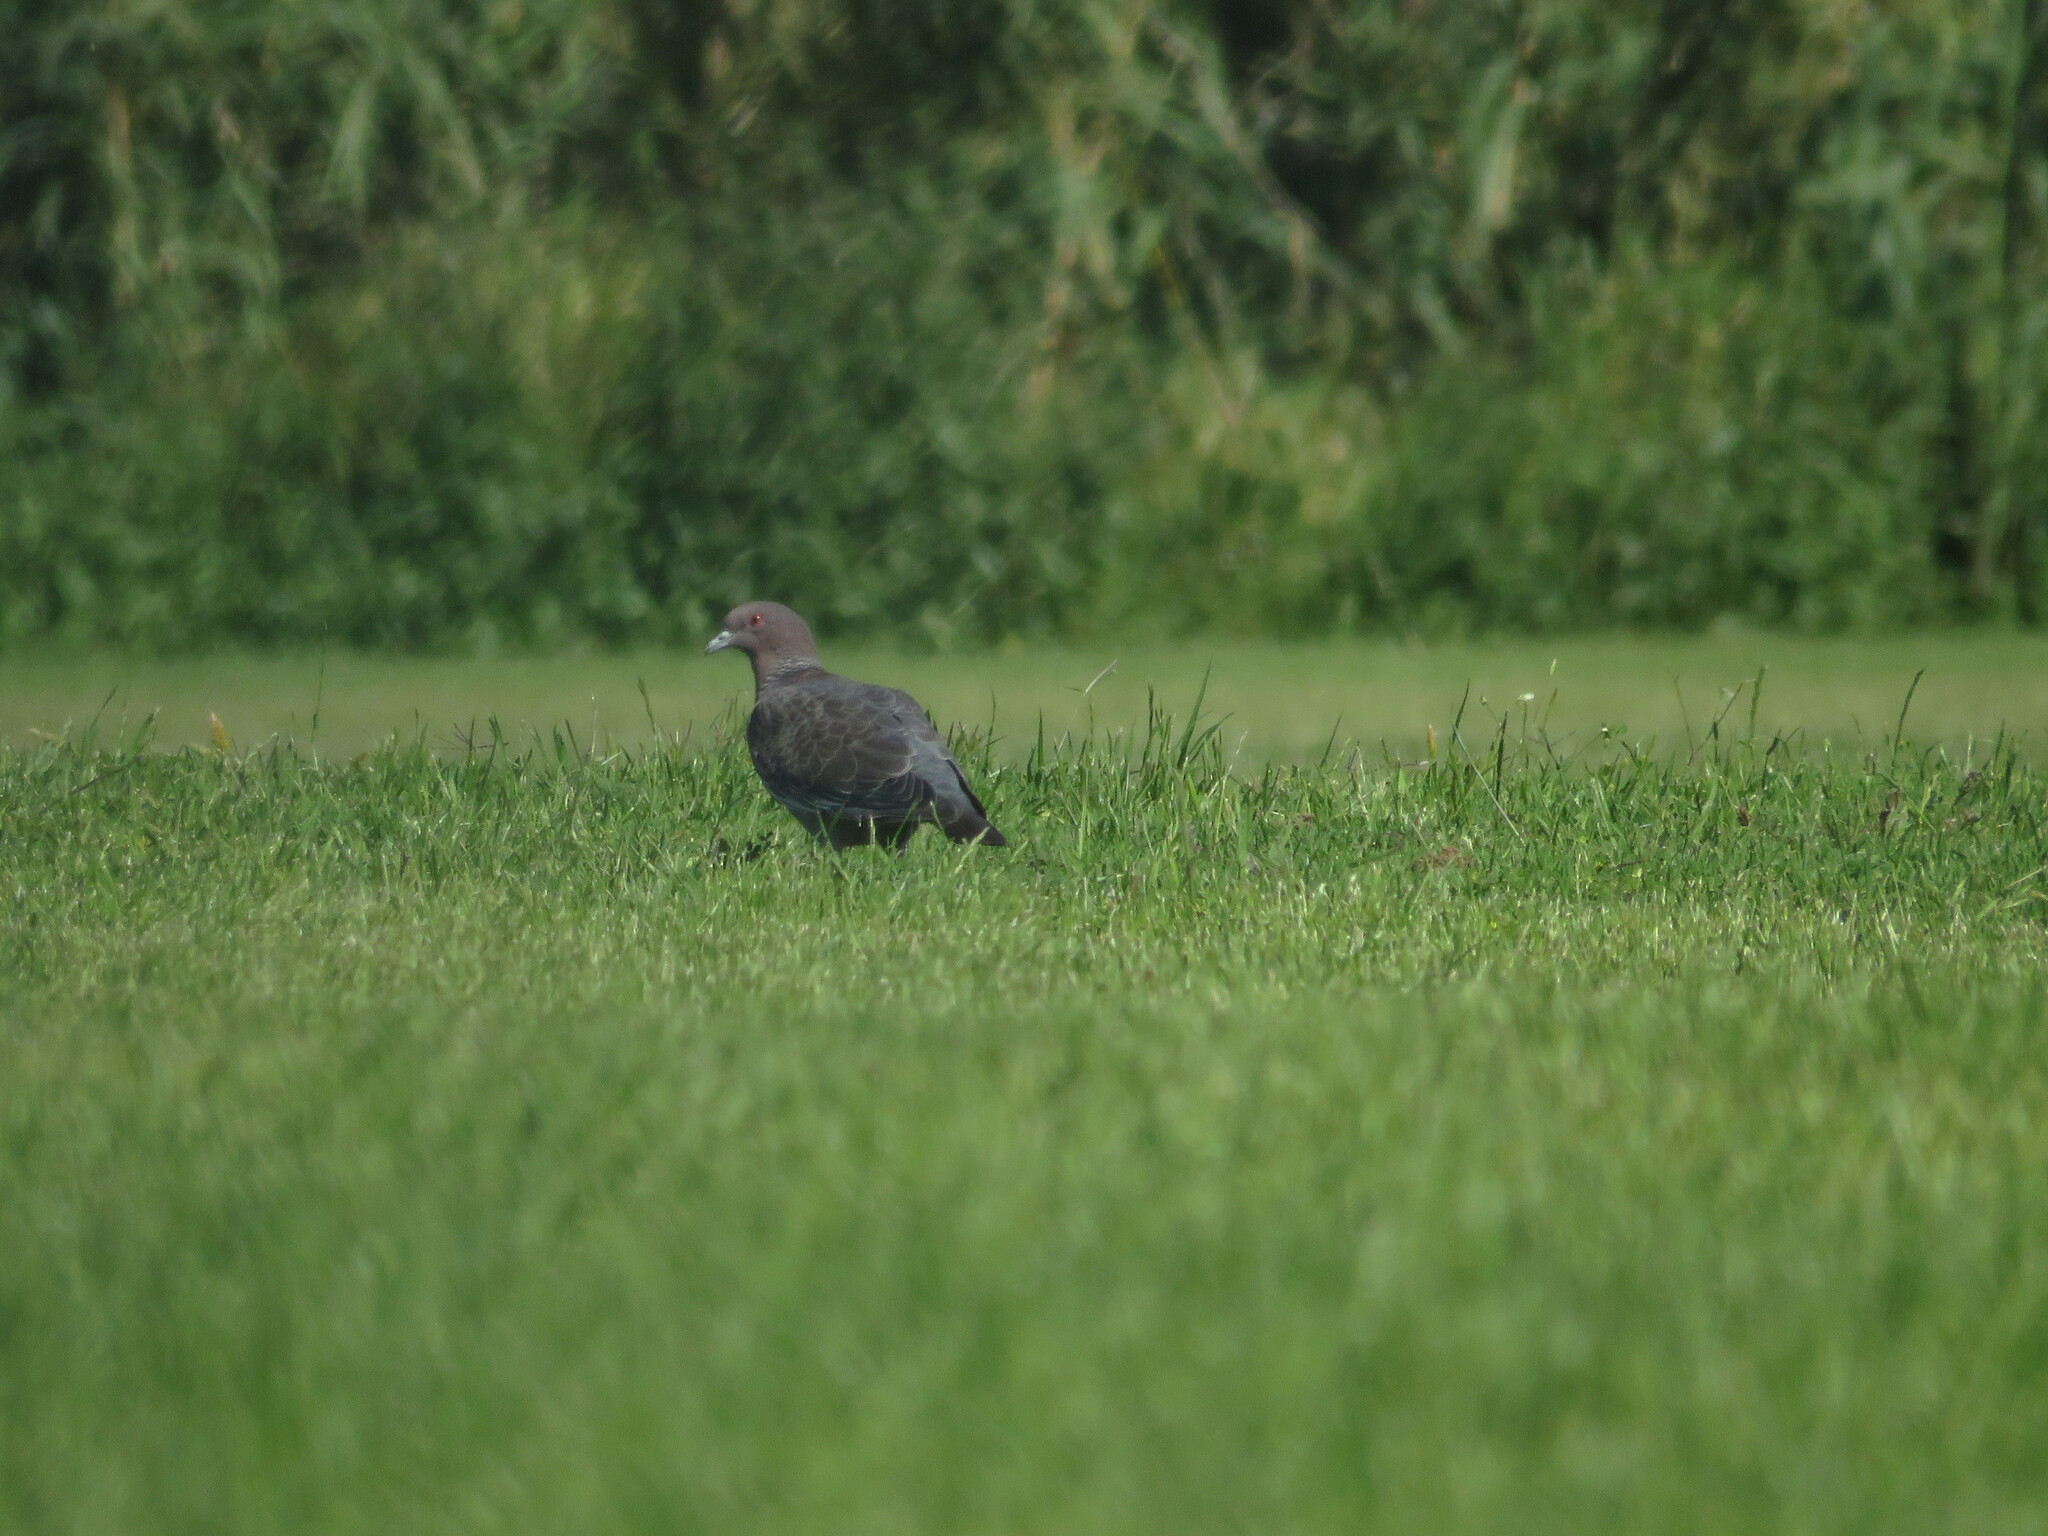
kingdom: Animalia
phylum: Chordata
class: Aves
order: Columbiformes
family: Columbidae
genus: Patagioenas
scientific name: Patagioenas picazuro
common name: Picazuro pigeon
